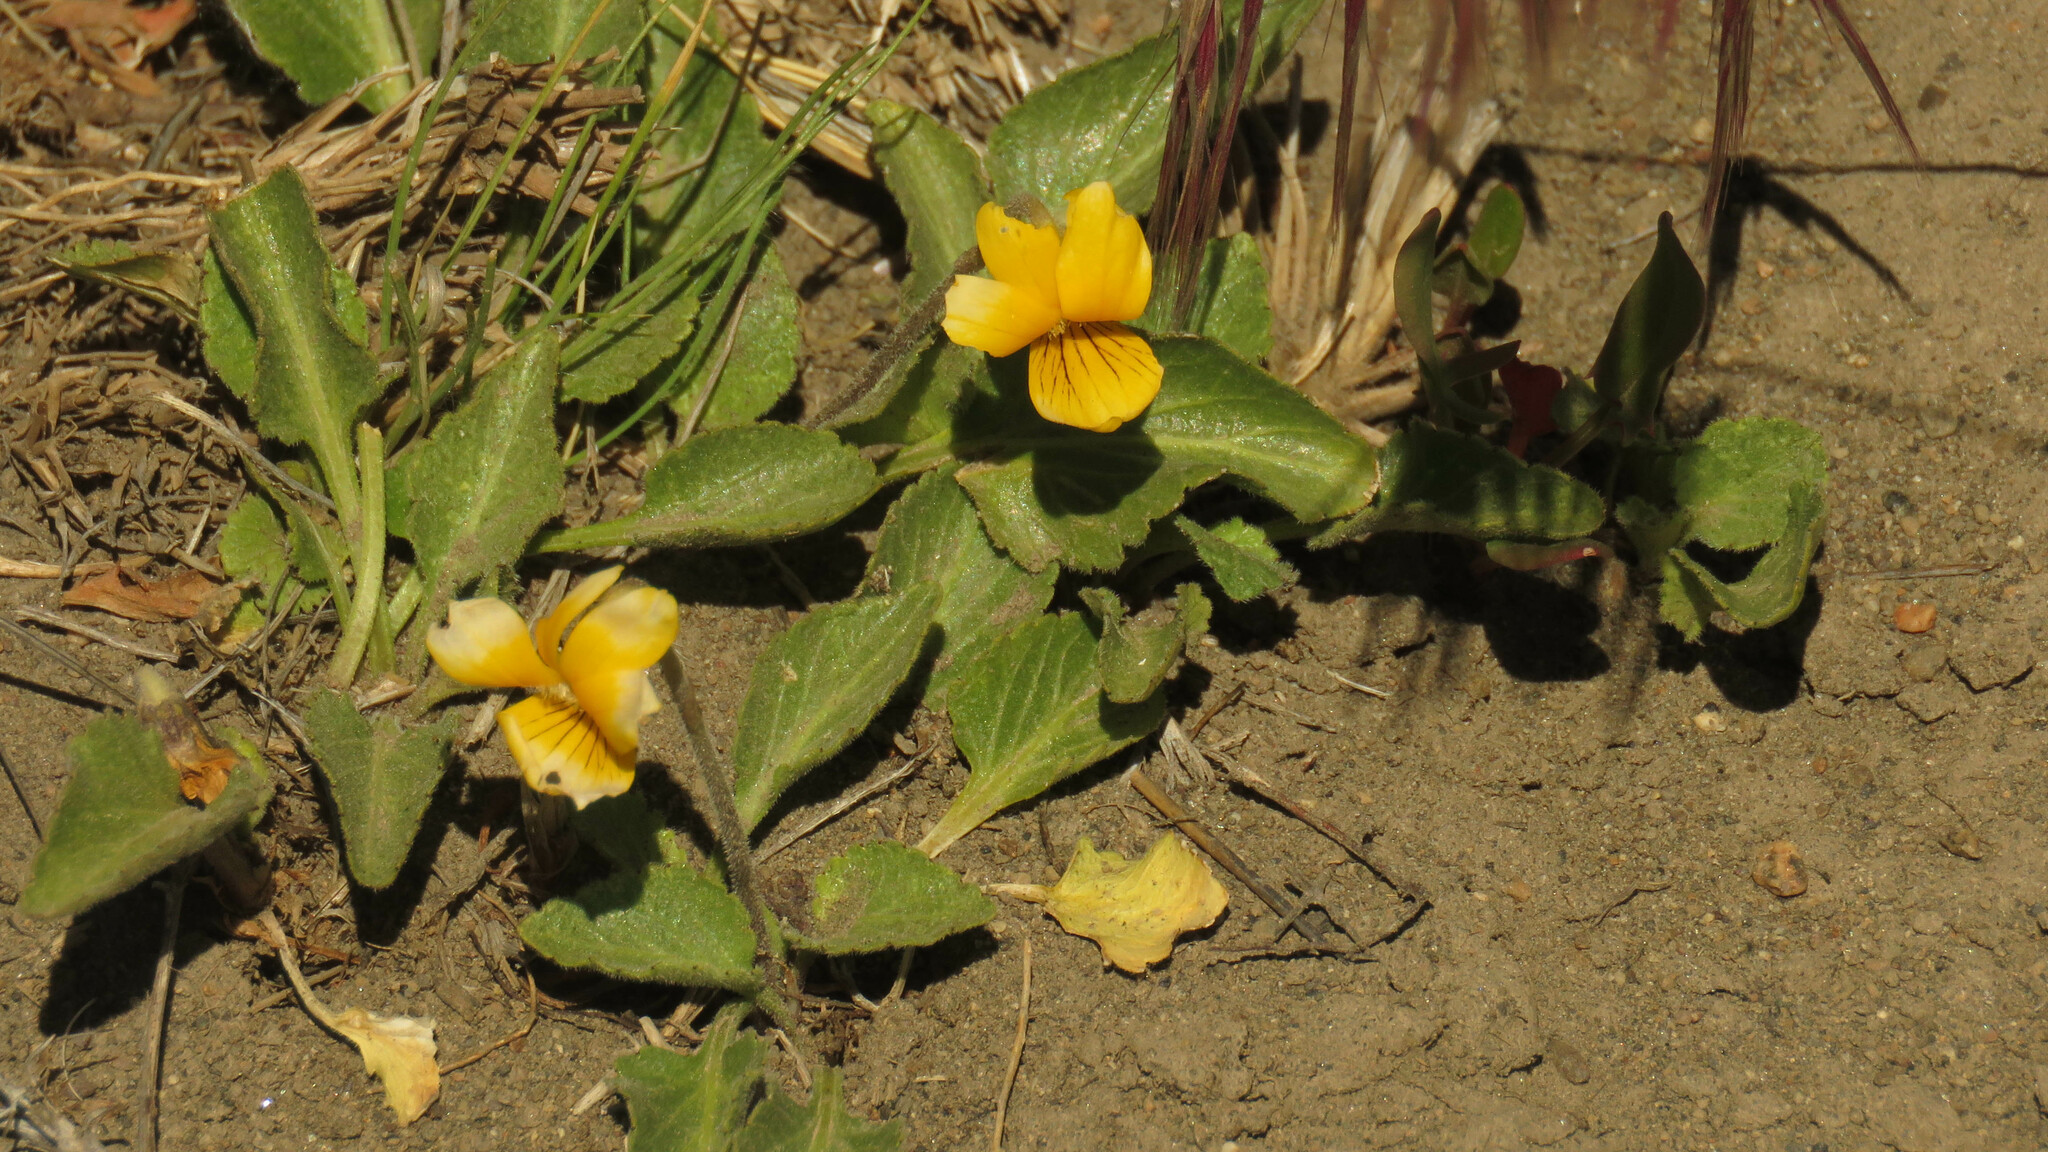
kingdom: Plantae
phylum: Tracheophyta
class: Magnoliopsida
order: Malpighiales
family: Violaceae
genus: Viola
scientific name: Viola maculata
